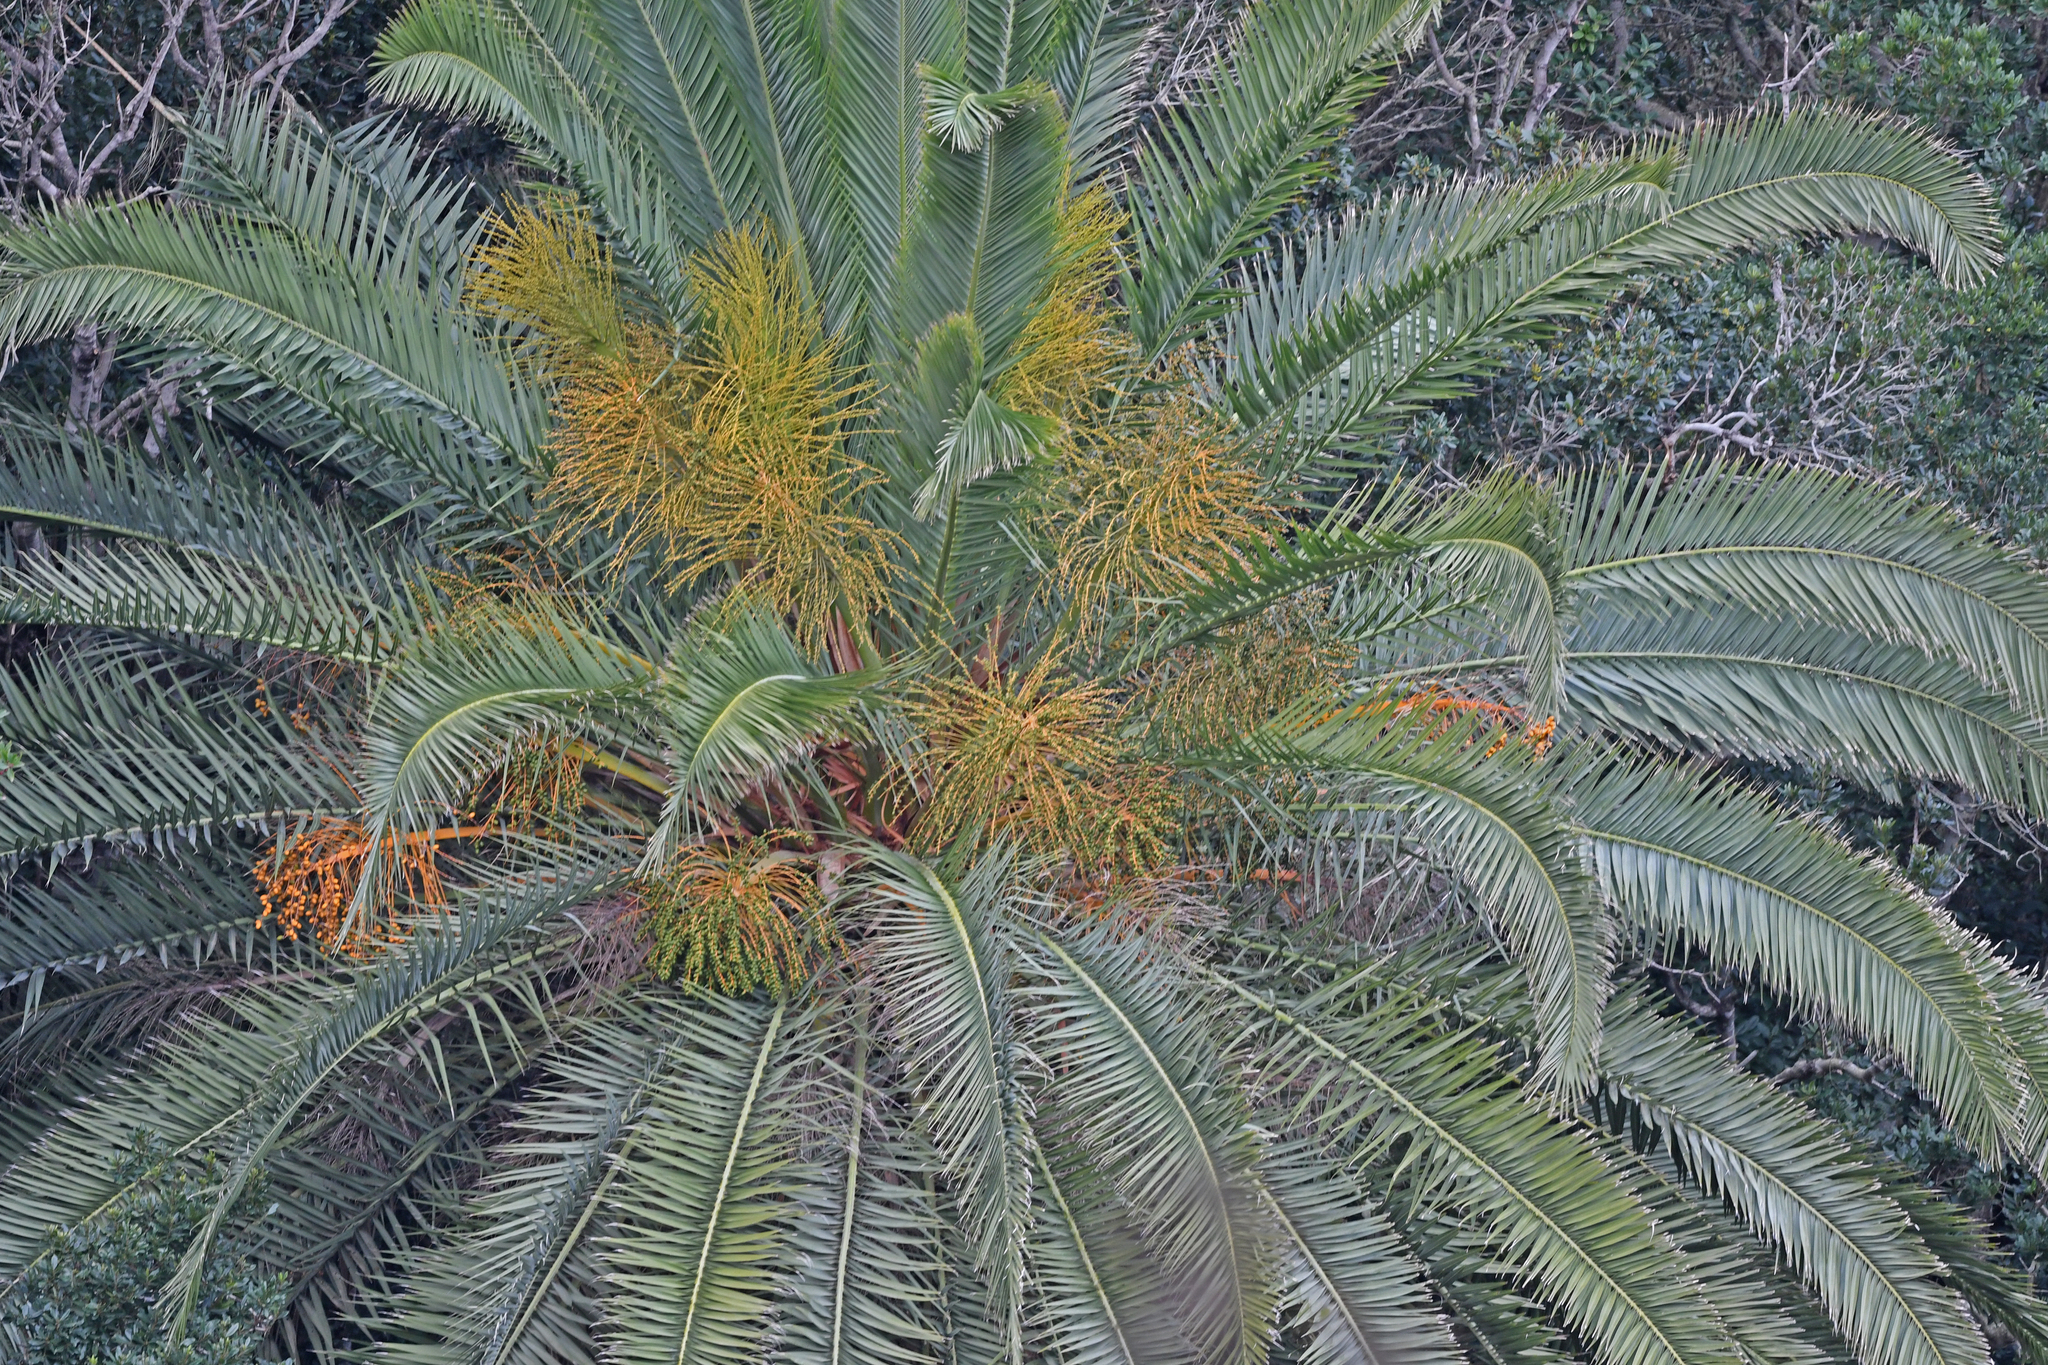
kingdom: Plantae
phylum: Tracheophyta
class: Liliopsida
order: Arecales
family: Arecaceae
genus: Phoenix
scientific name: Phoenix canariensis
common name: Canary island date palm
